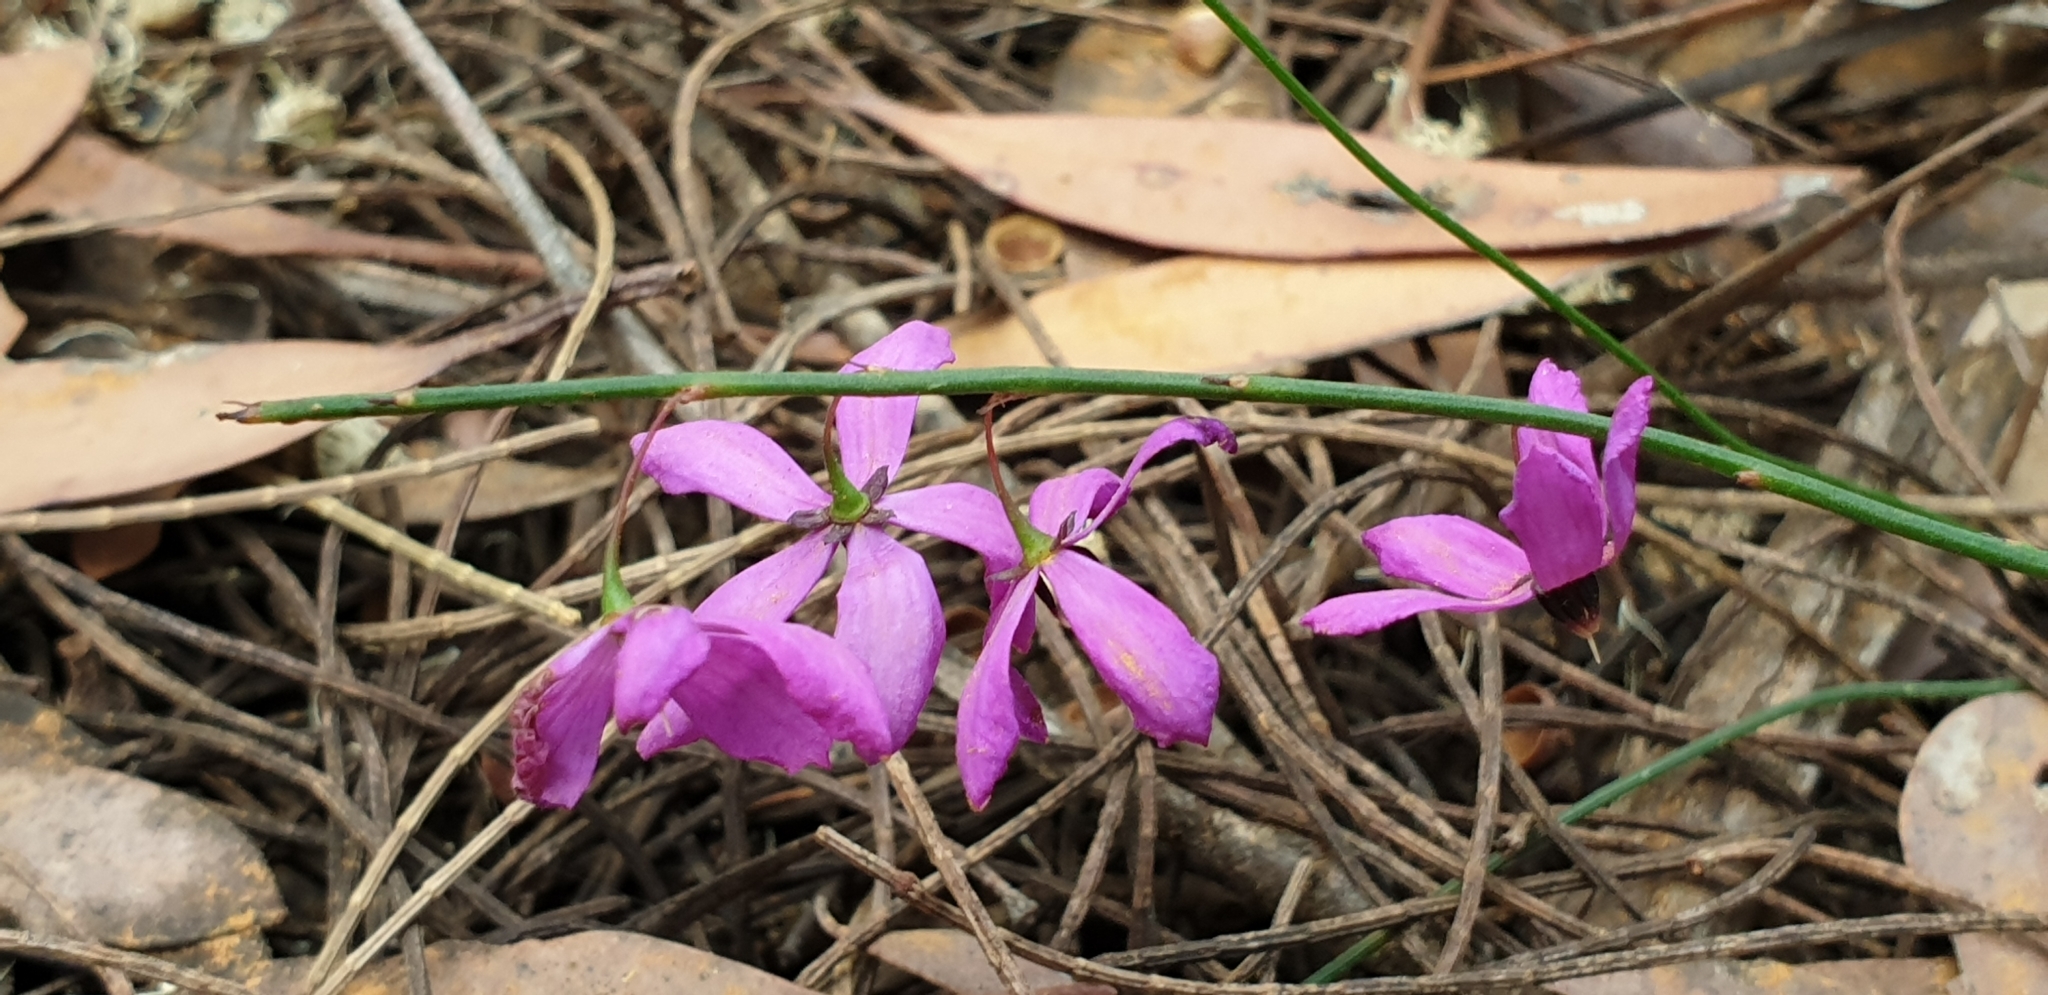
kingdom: Plantae
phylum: Tracheophyta
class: Magnoliopsida
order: Oxalidales
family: Elaeocarpaceae
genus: Tetratheca
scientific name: Tetratheca halmaturina
